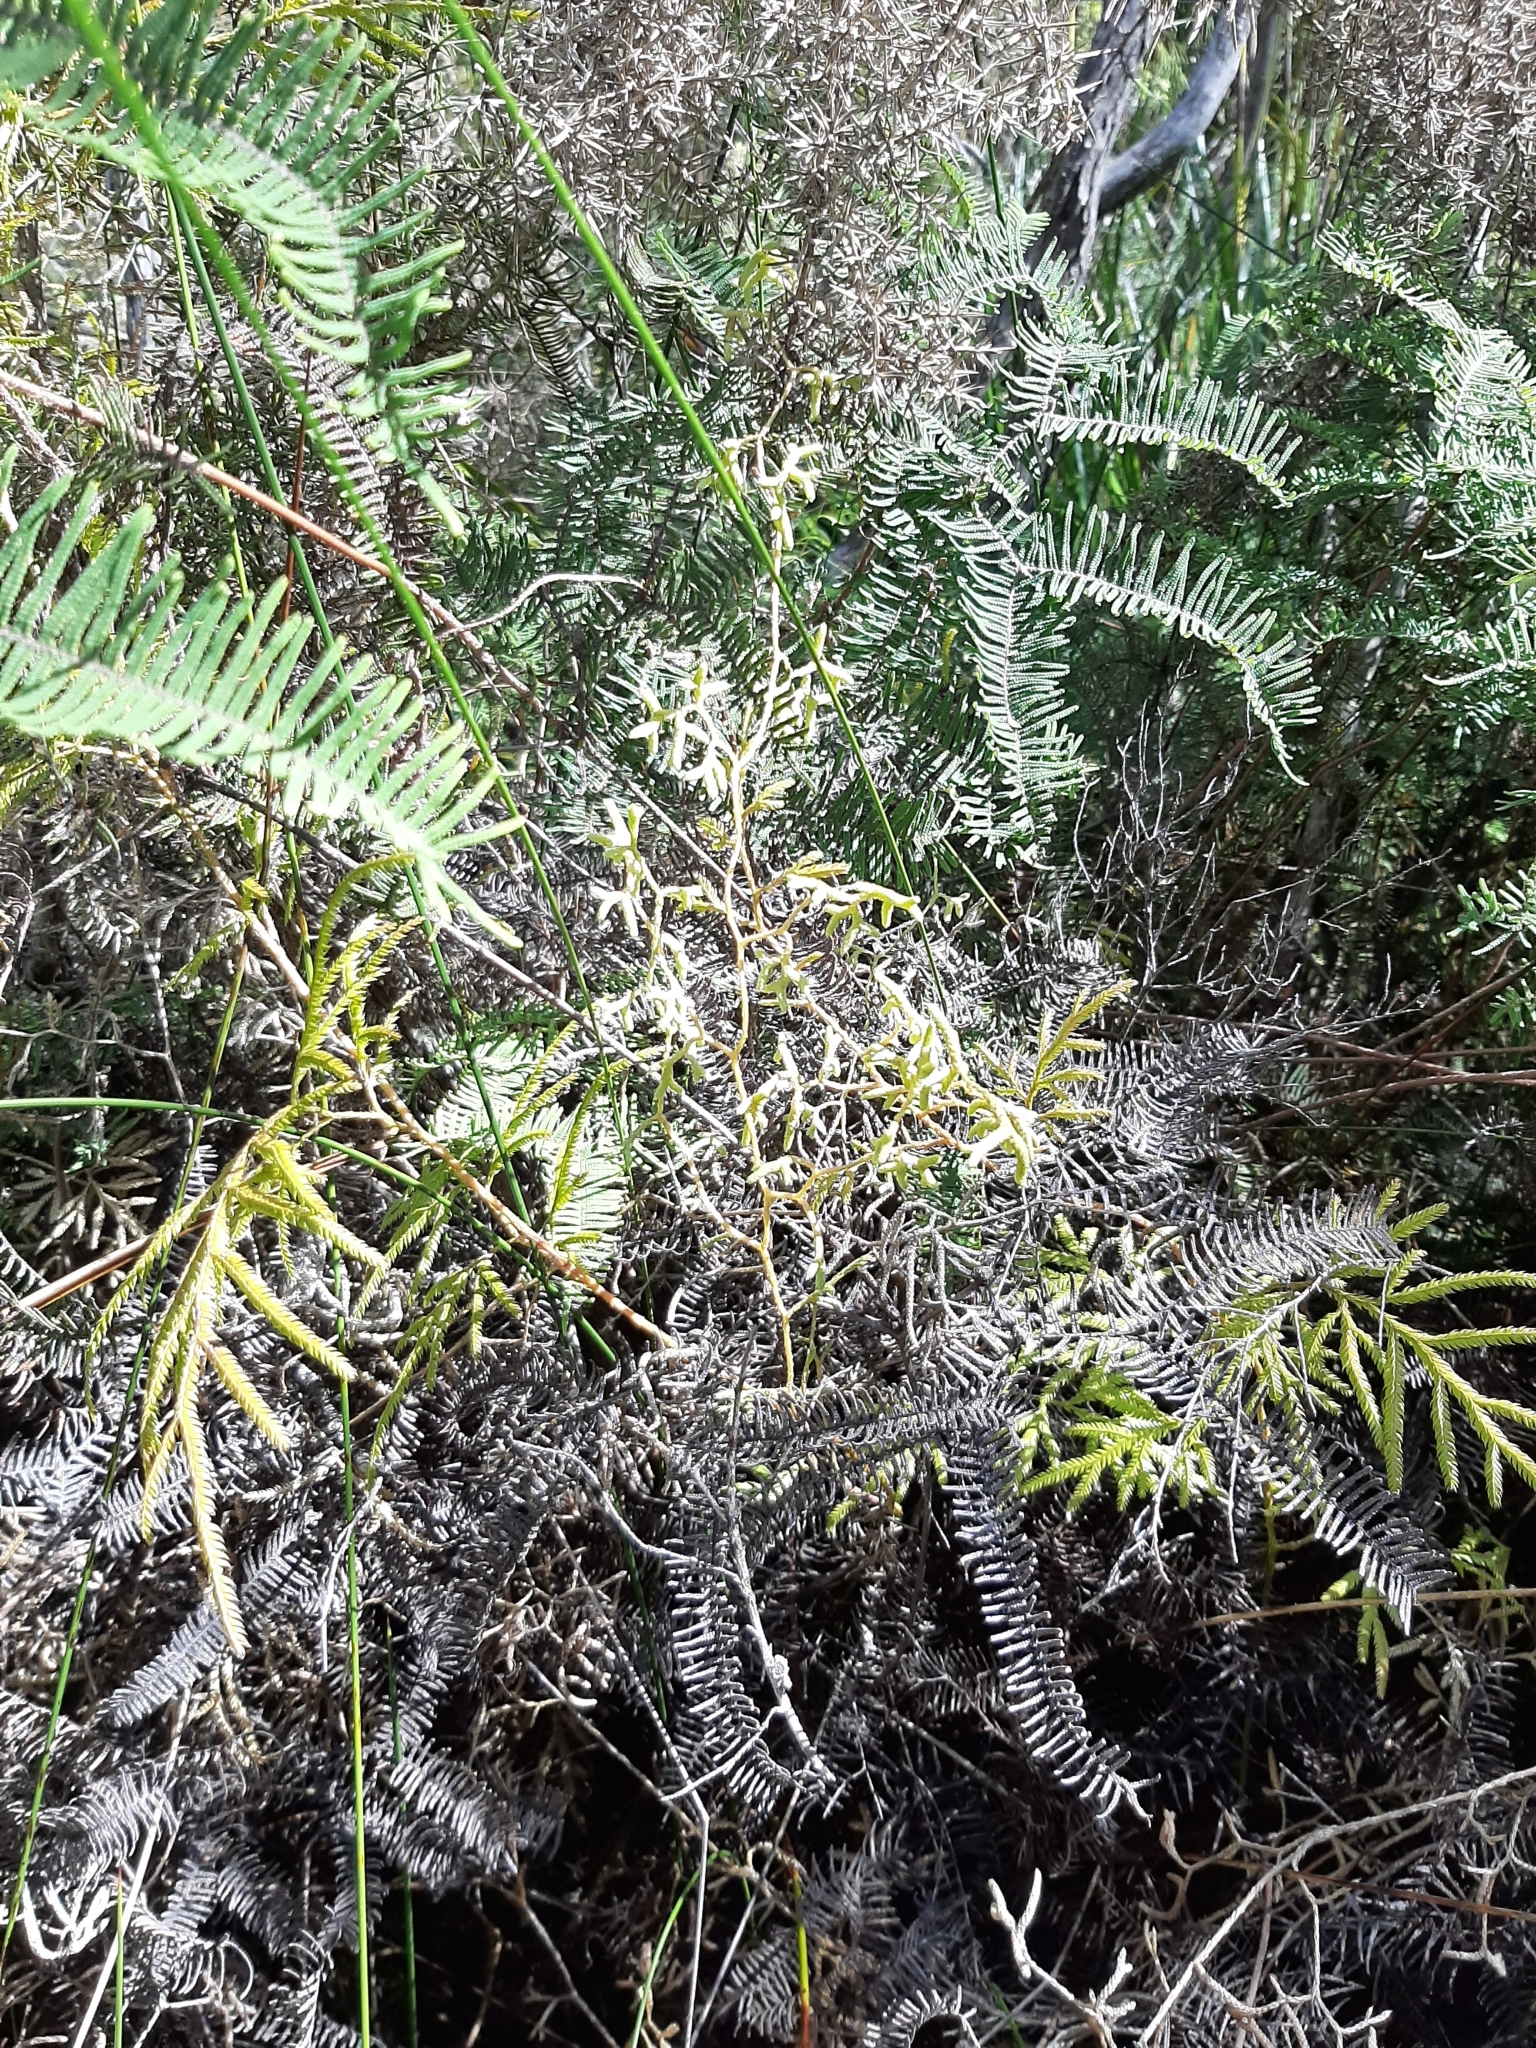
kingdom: Plantae
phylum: Tracheophyta
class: Lycopodiopsida
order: Lycopodiales
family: Lycopodiaceae
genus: Lycopodium
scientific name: Lycopodium volubile
